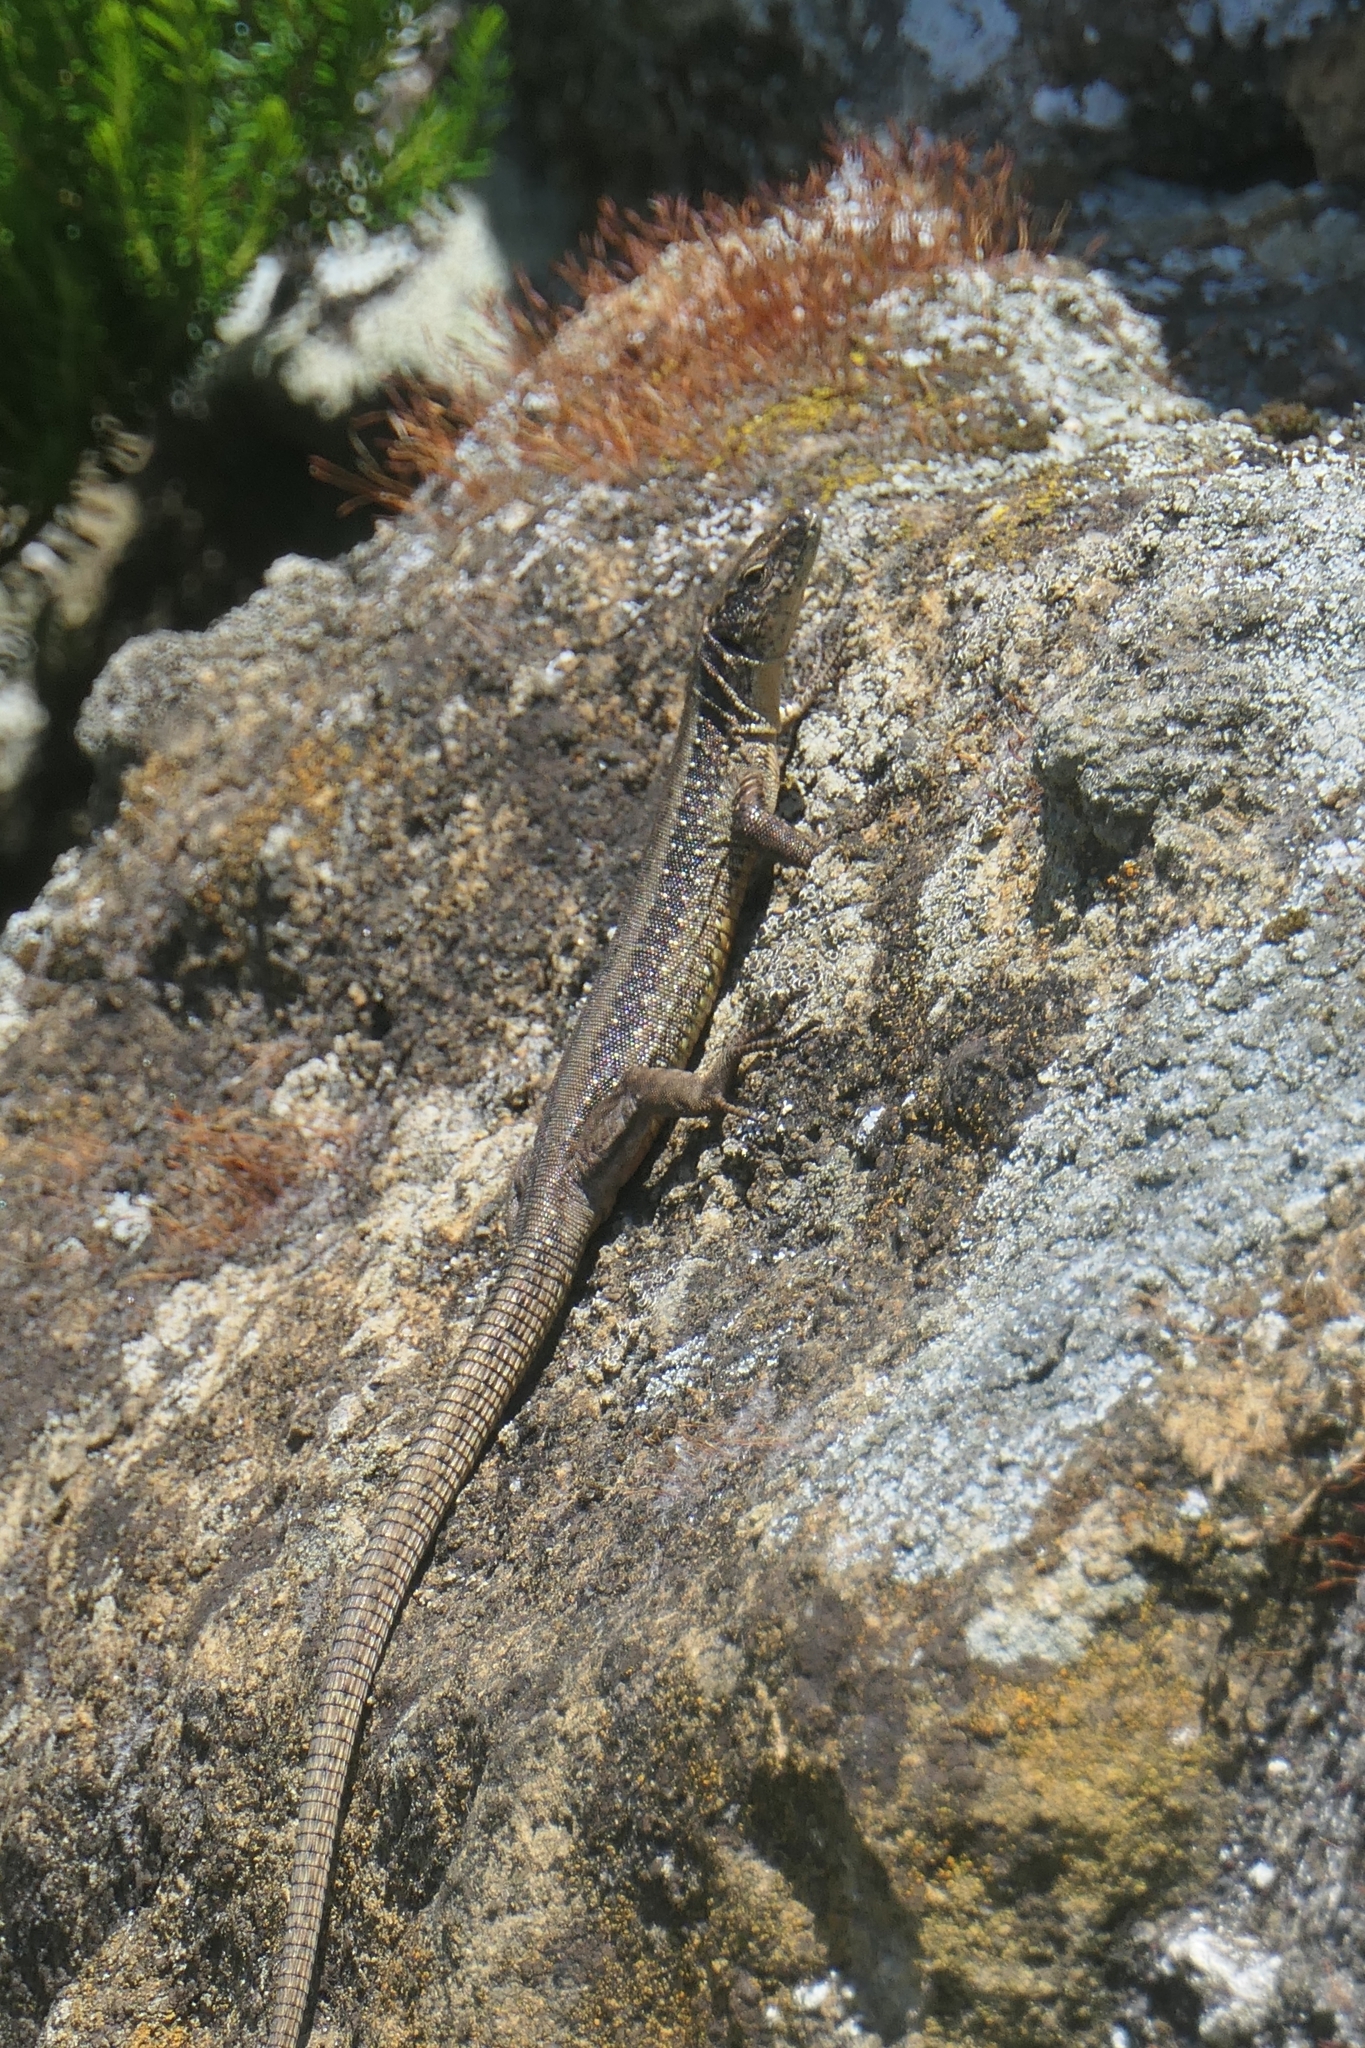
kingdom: Animalia
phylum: Chordata
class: Squamata
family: Lacertidae
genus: Teira
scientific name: Teira dugesii
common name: Madeira lizard
